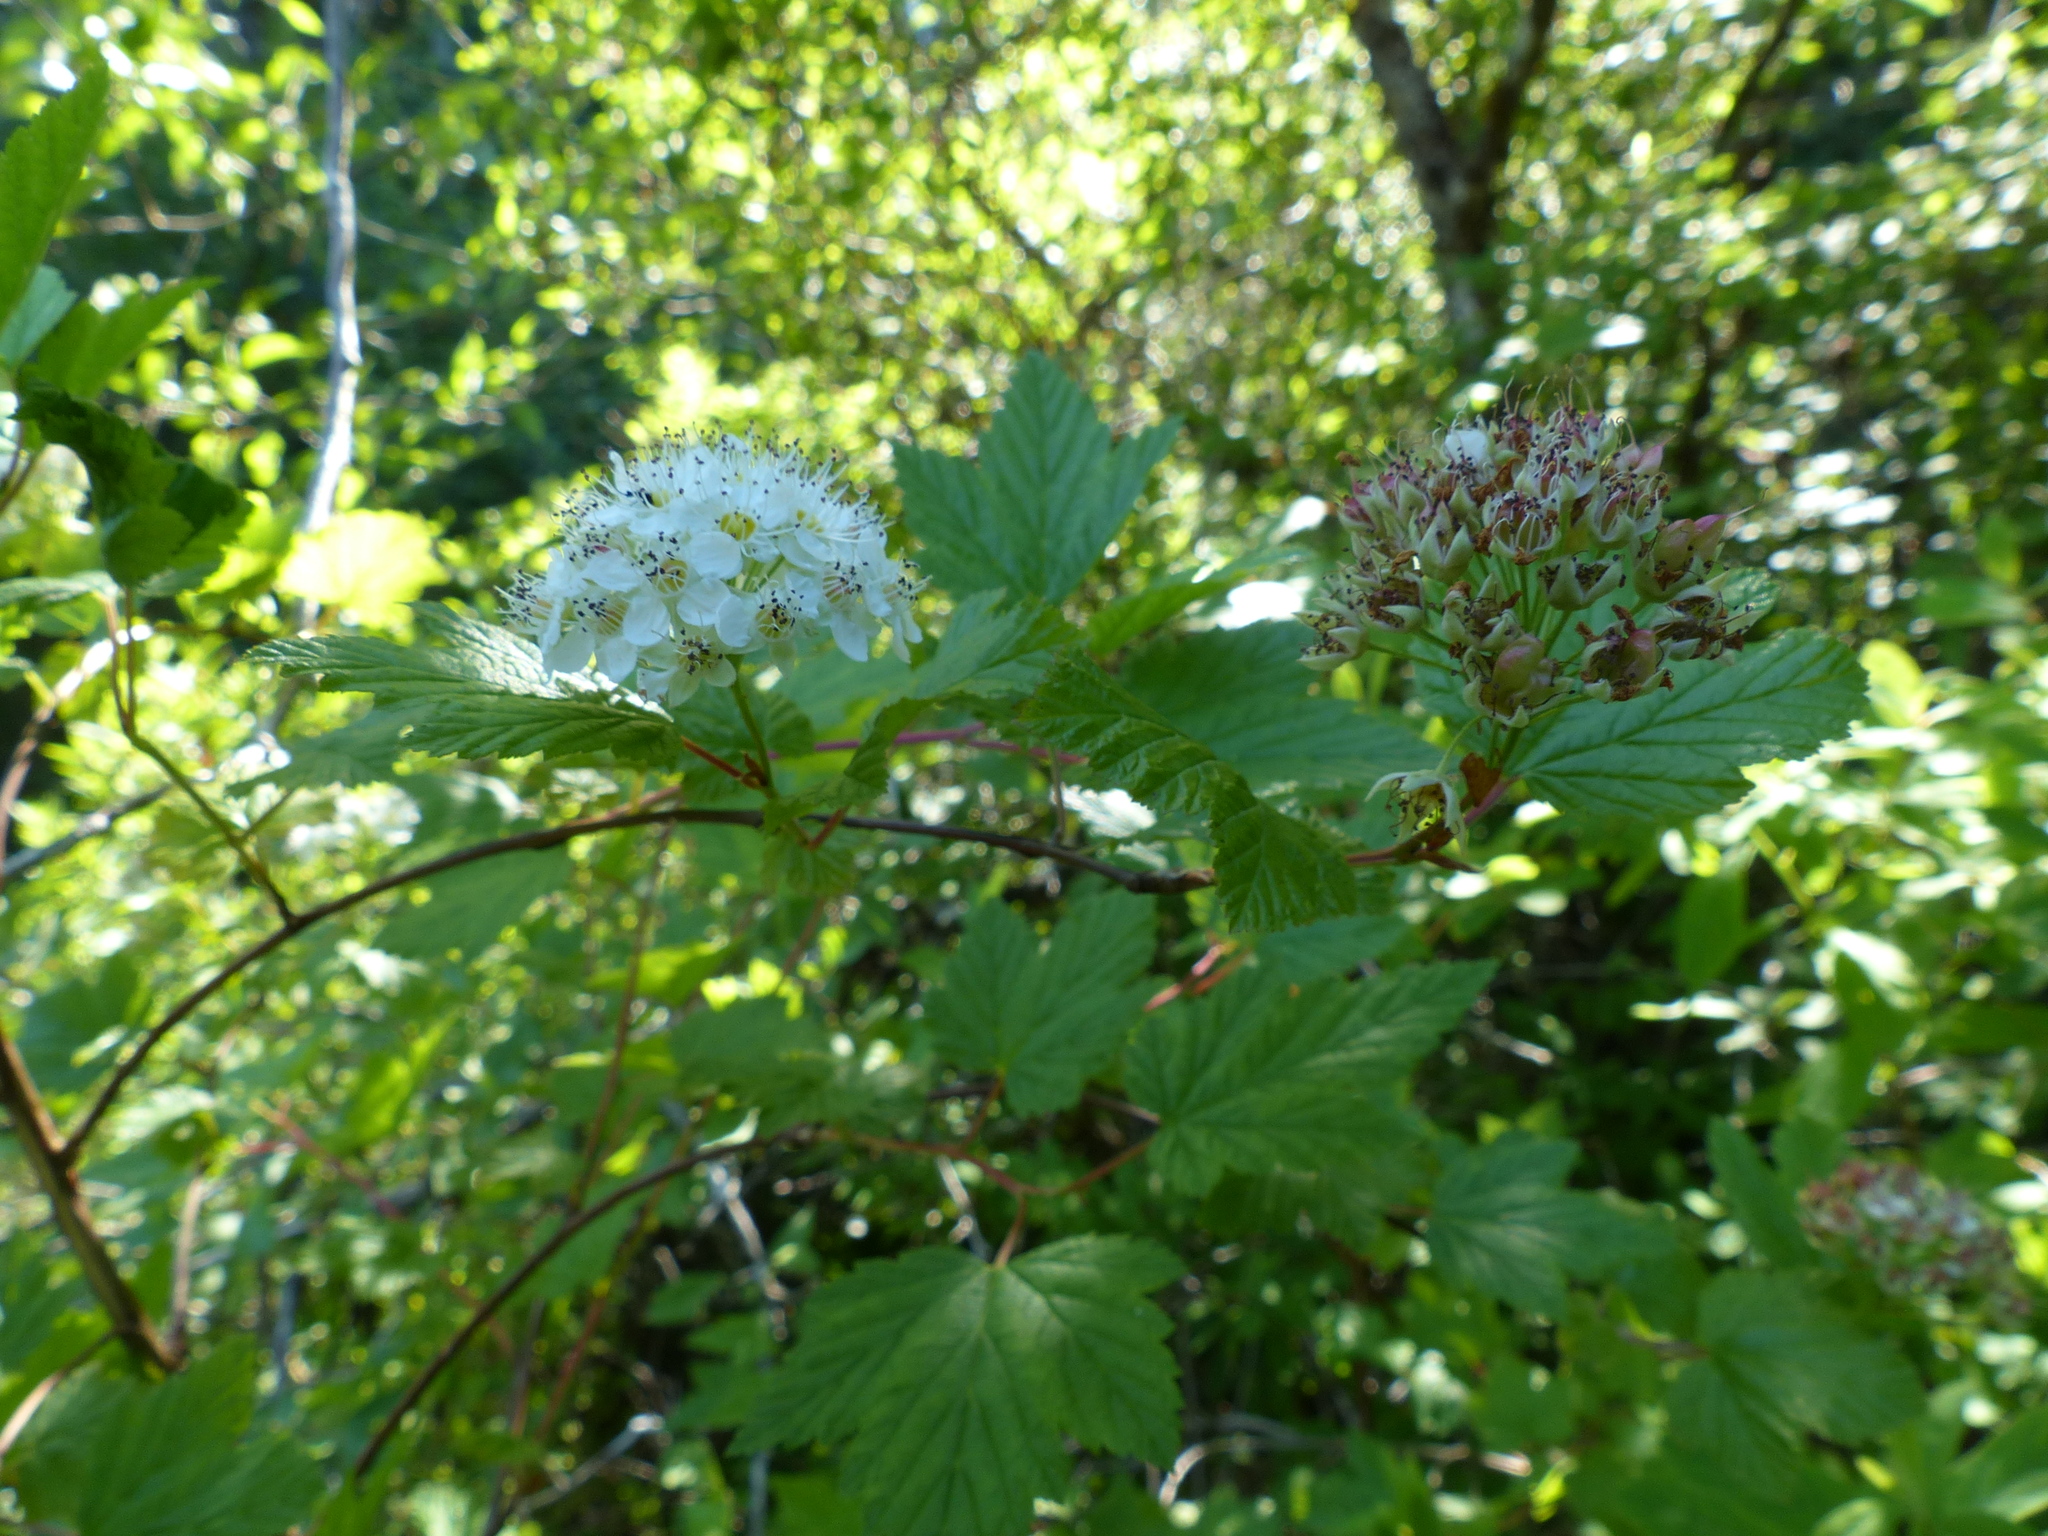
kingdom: Plantae
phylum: Tracheophyta
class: Magnoliopsida
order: Rosales
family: Rosaceae
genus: Physocarpus
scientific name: Physocarpus capitatus
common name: Pacific ninebark
